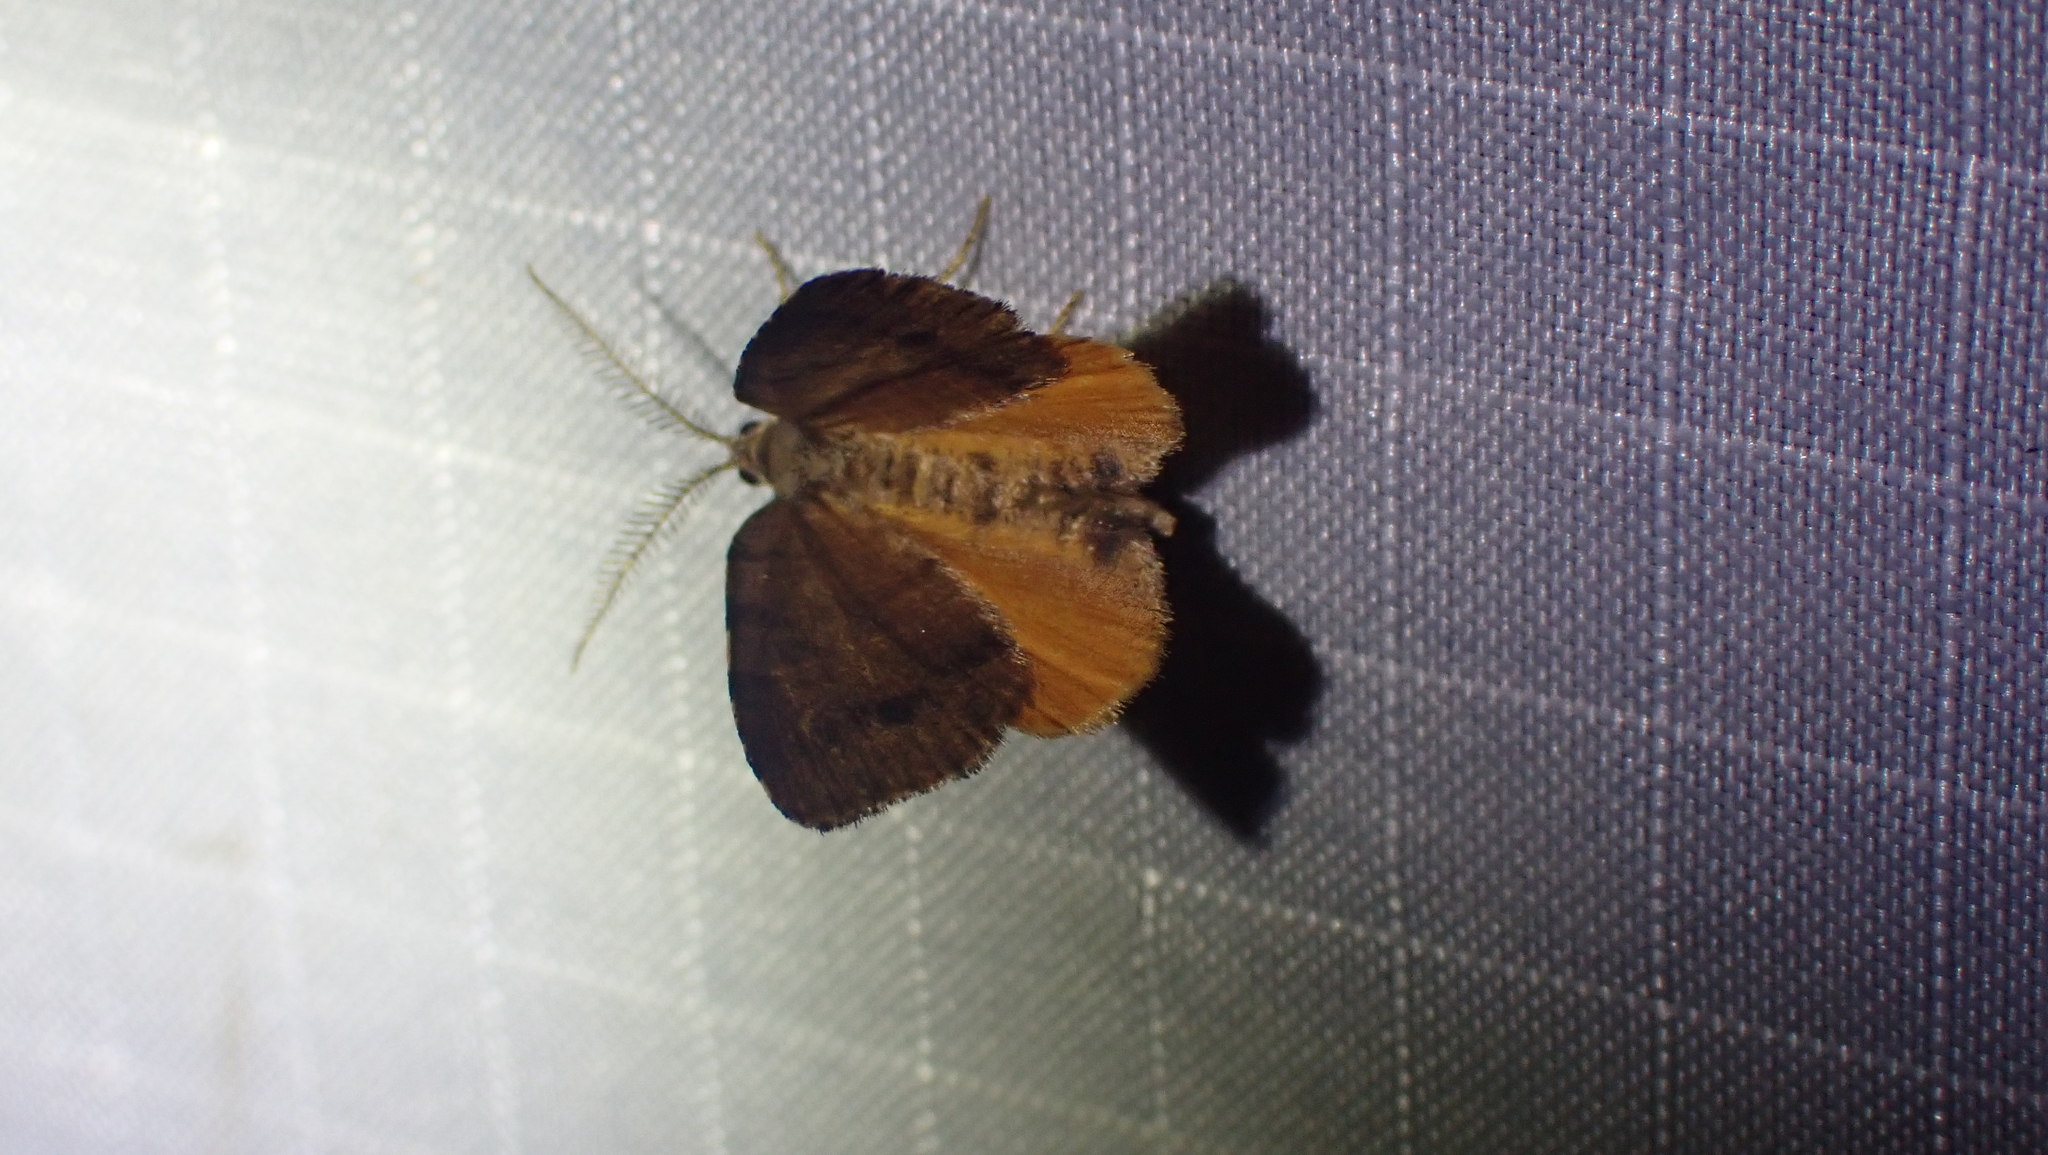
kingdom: Animalia
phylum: Arthropoda
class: Insecta
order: Lepidoptera
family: Geometridae
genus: Mellilla
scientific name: Mellilla xanthometata
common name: Orange wing moth
